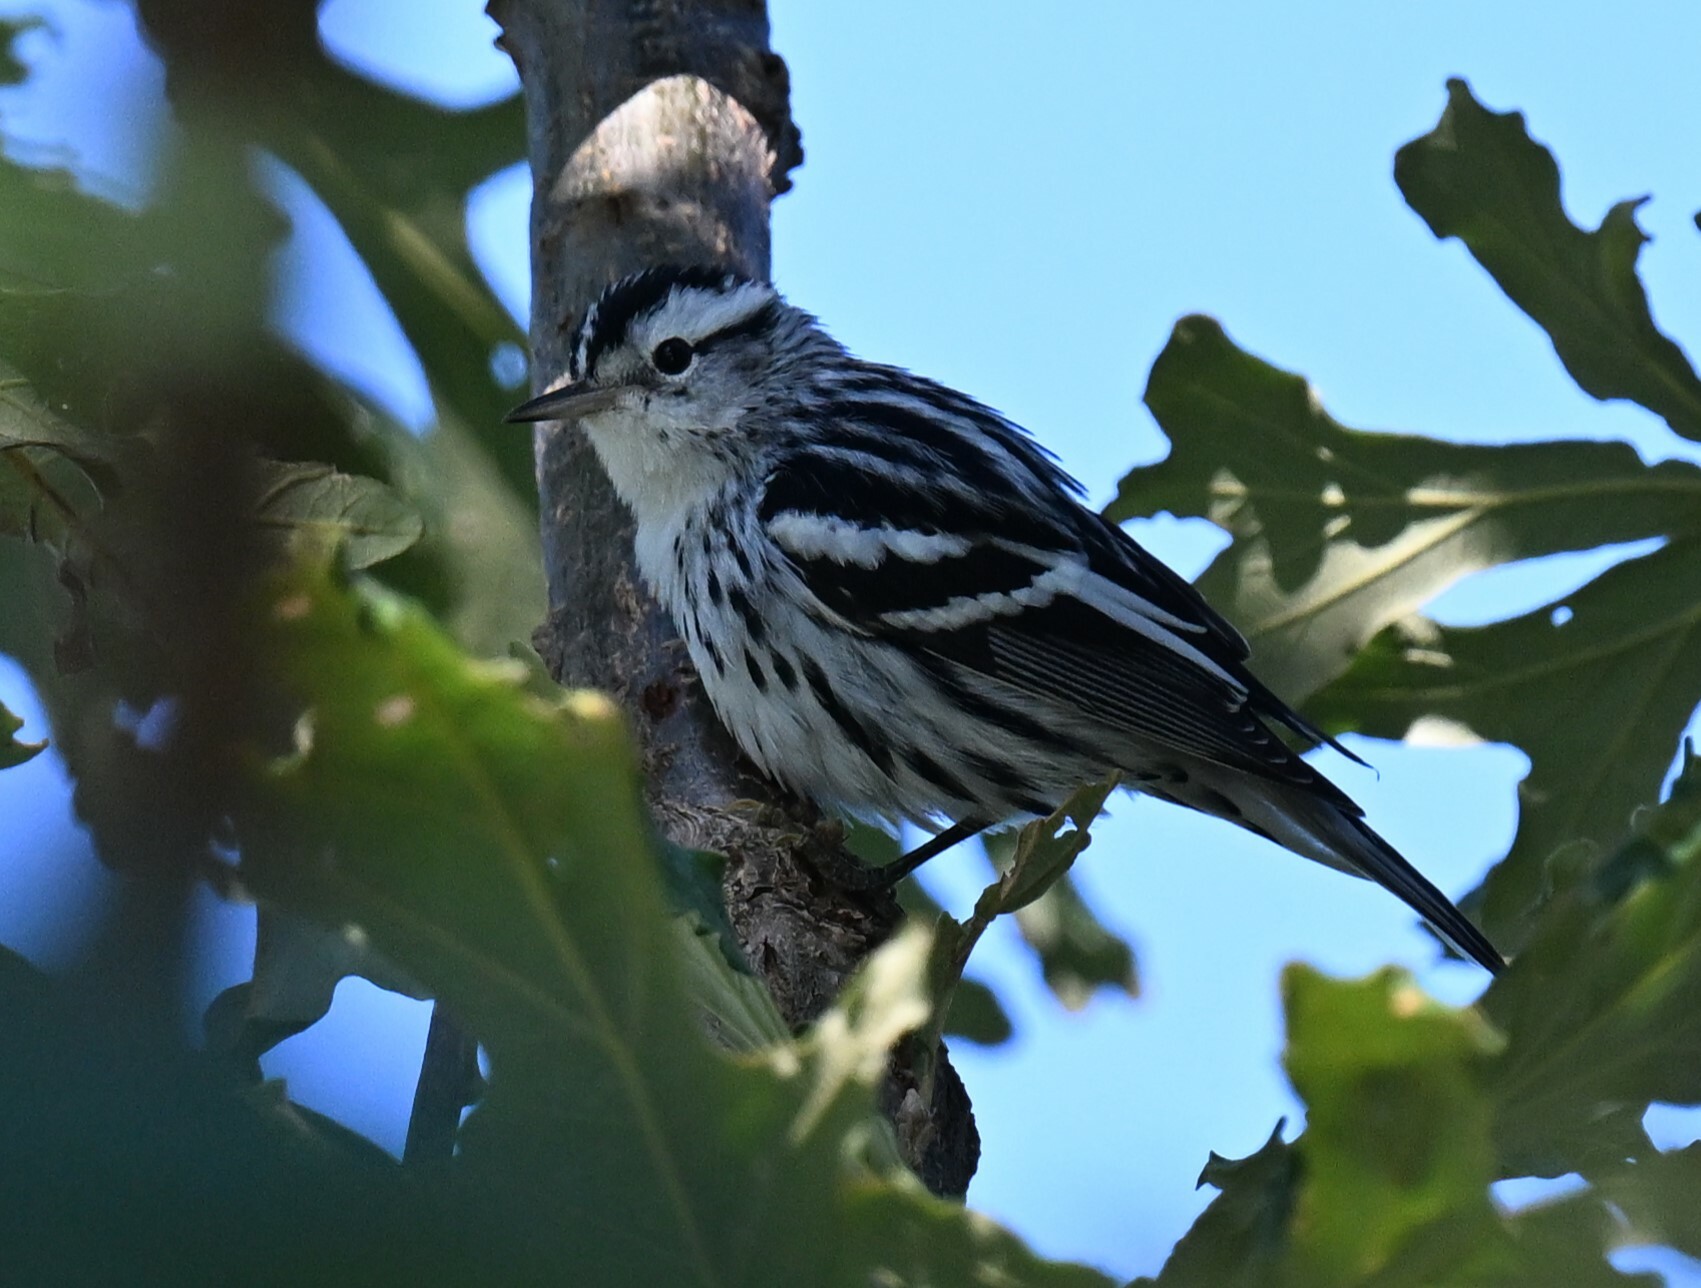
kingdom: Animalia
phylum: Chordata
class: Aves
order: Passeriformes
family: Parulidae
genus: Mniotilta
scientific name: Mniotilta varia
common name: Black-and-white warbler
